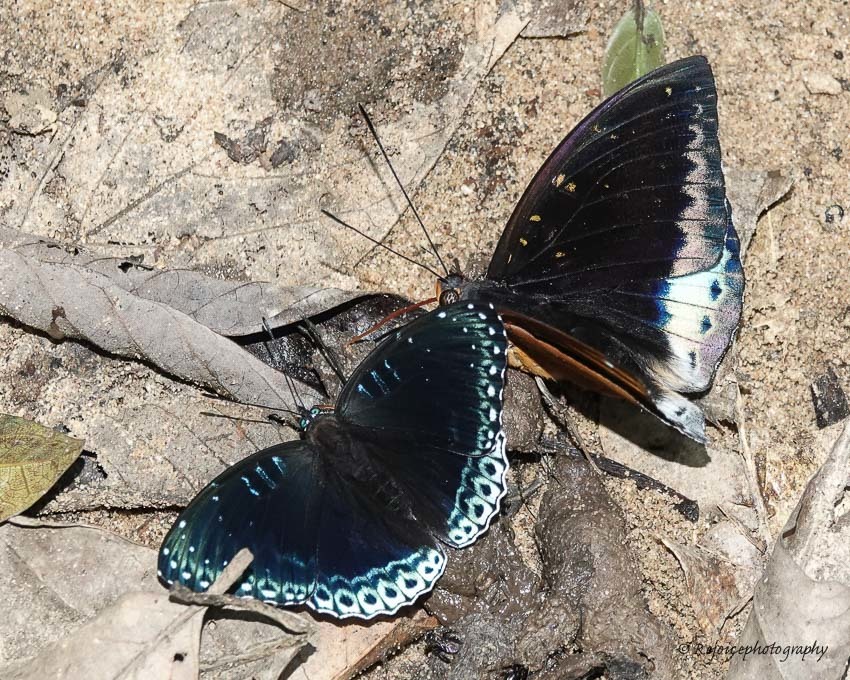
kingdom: Animalia
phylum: Arthropoda
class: Insecta
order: Lepidoptera
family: Nymphalidae
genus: Stibochiona
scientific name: Stibochiona nicea
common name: Popinjay
